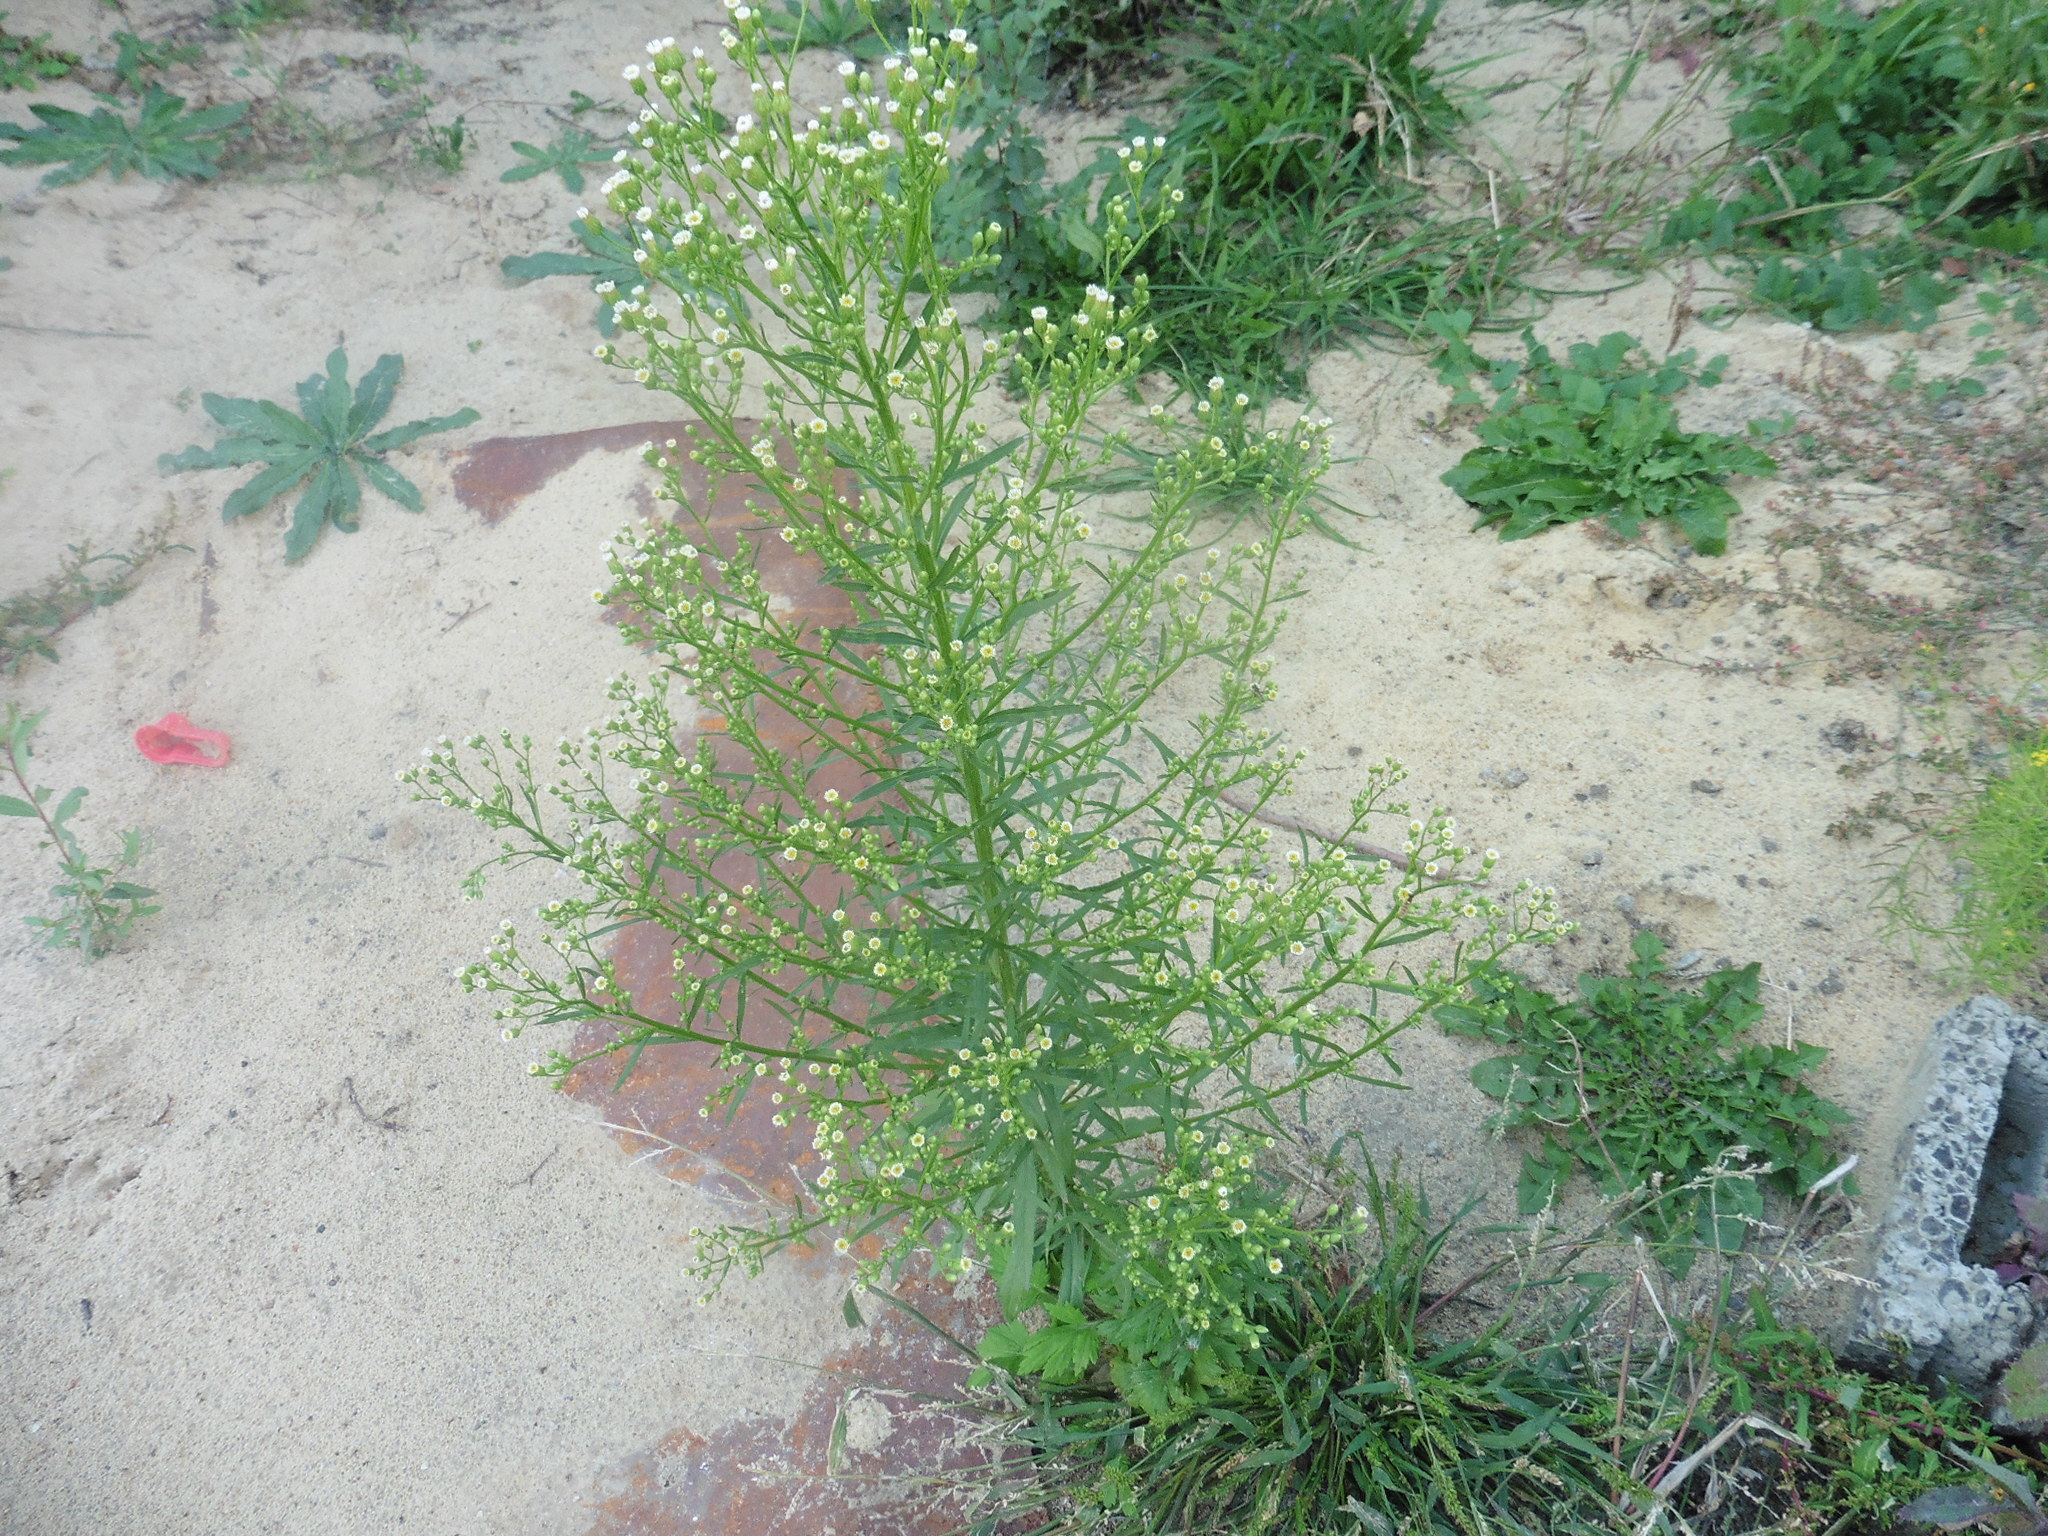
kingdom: Plantae
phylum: Tracheophyta
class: Magnoliopsida
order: Asterales
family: Asteraceae
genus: Erigeron
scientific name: Erigeron canadensis
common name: Canadian fleabane
